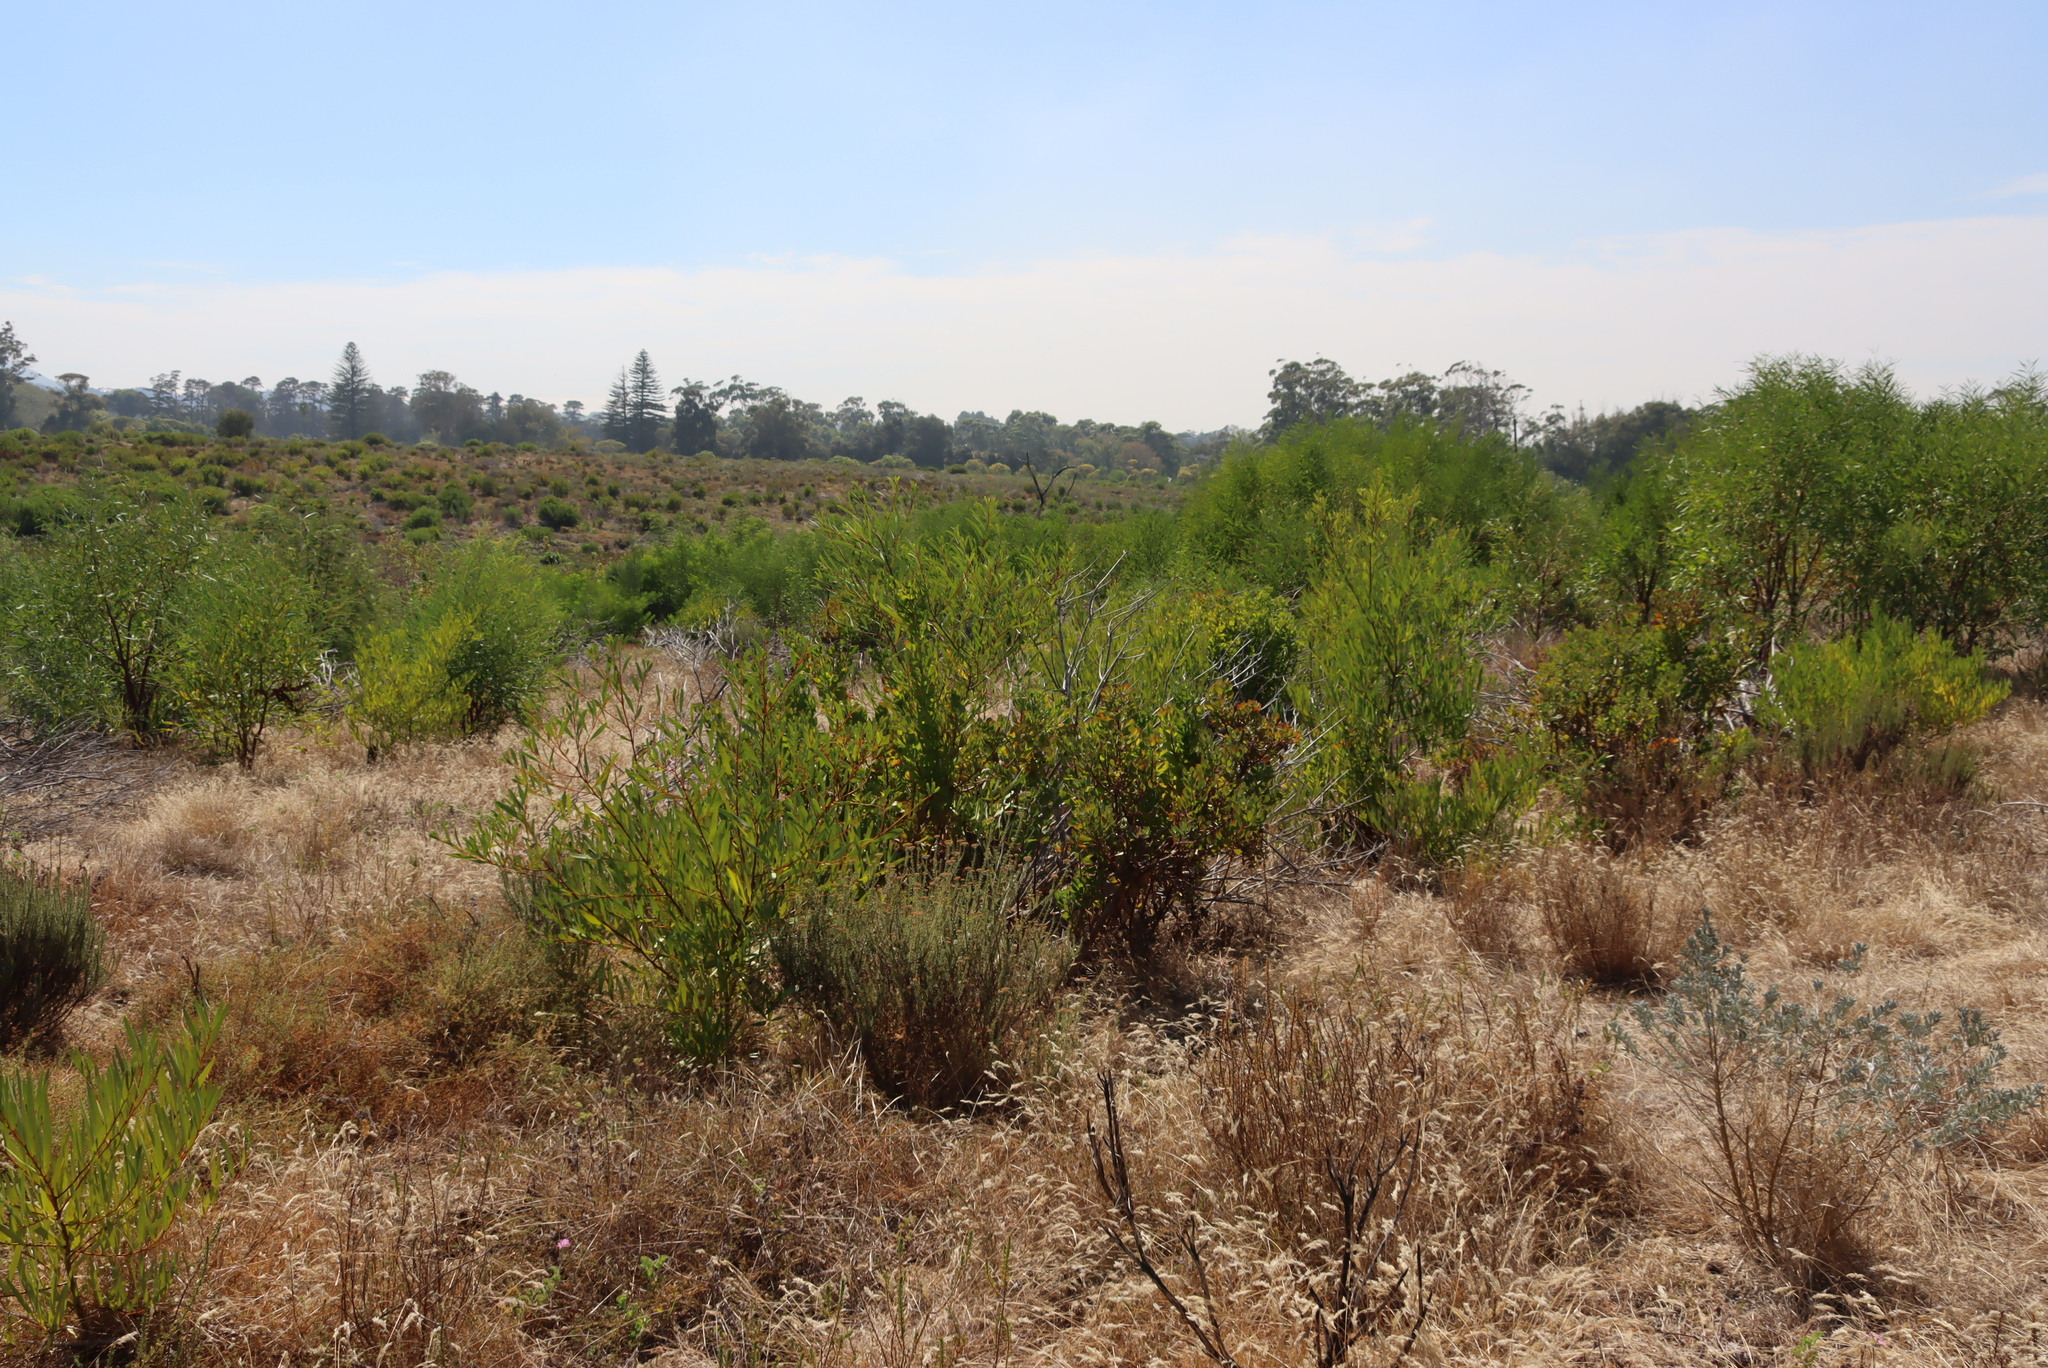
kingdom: Plantae
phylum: Tracheophyta
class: Magnoliopsida
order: Fabales
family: Fabaceae
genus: Acacia
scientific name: Acacia longifolia
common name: Sydney golden wattle
